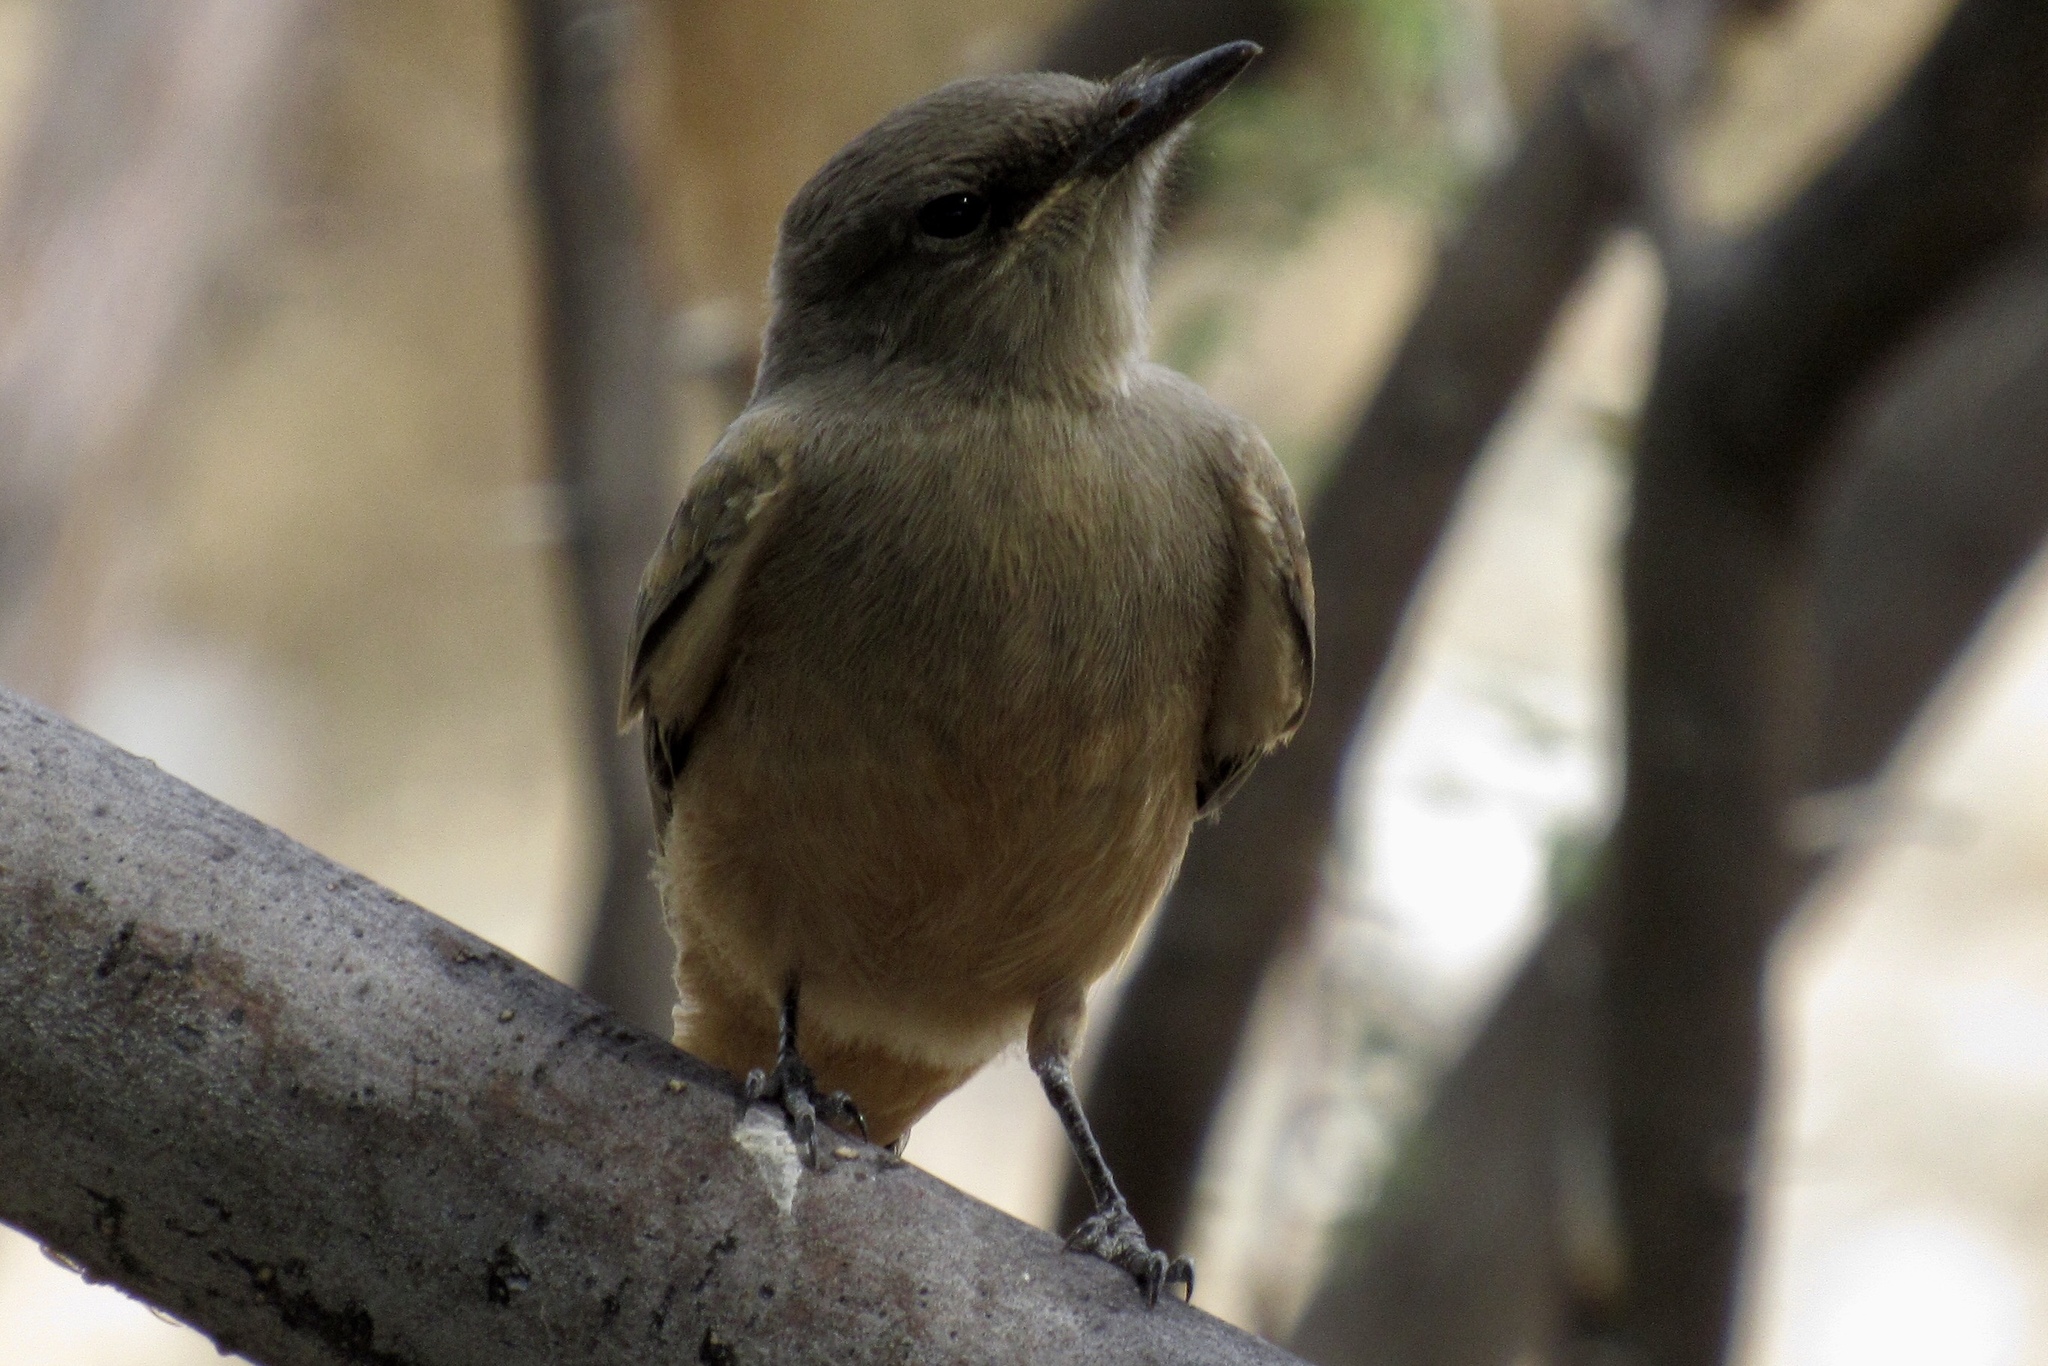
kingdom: Animalia
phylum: Chordata
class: Aves
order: Passeriformes
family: Tyrannidae
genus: Sayornis
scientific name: Sayornis saya
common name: Say's phoebe
